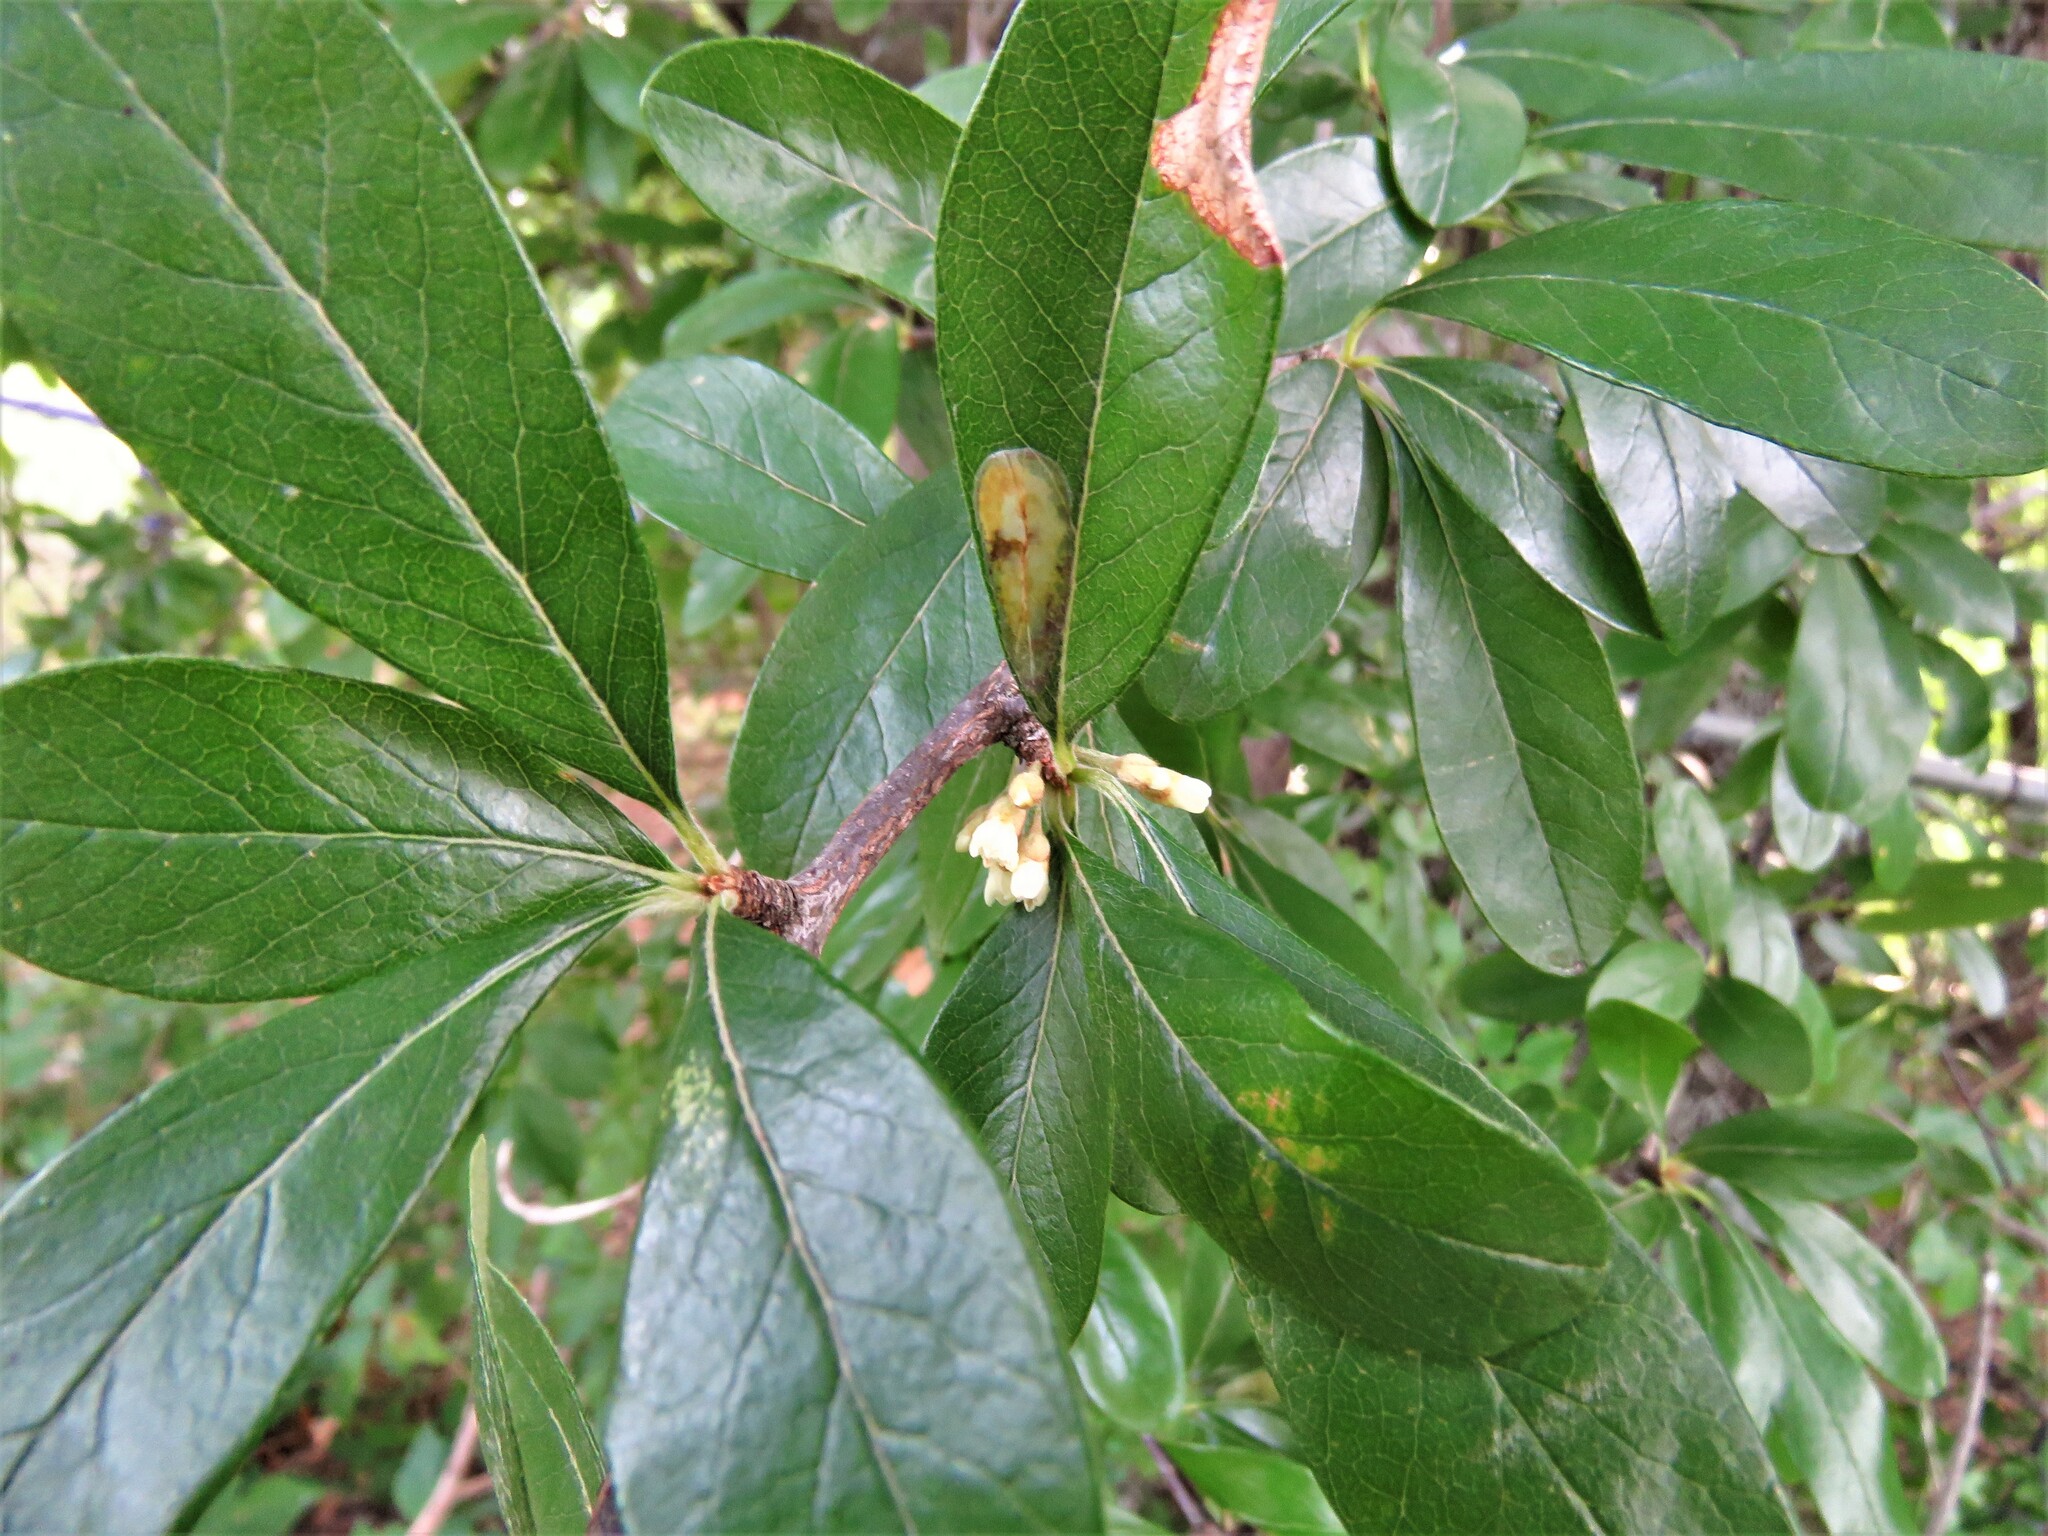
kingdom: Plantae
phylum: Tracheophyta
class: Magnoliopsida
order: Ericales
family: Sapotaceae
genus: Sideroxylon
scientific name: Sideroxylon lanuginosum
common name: Chittamwood
